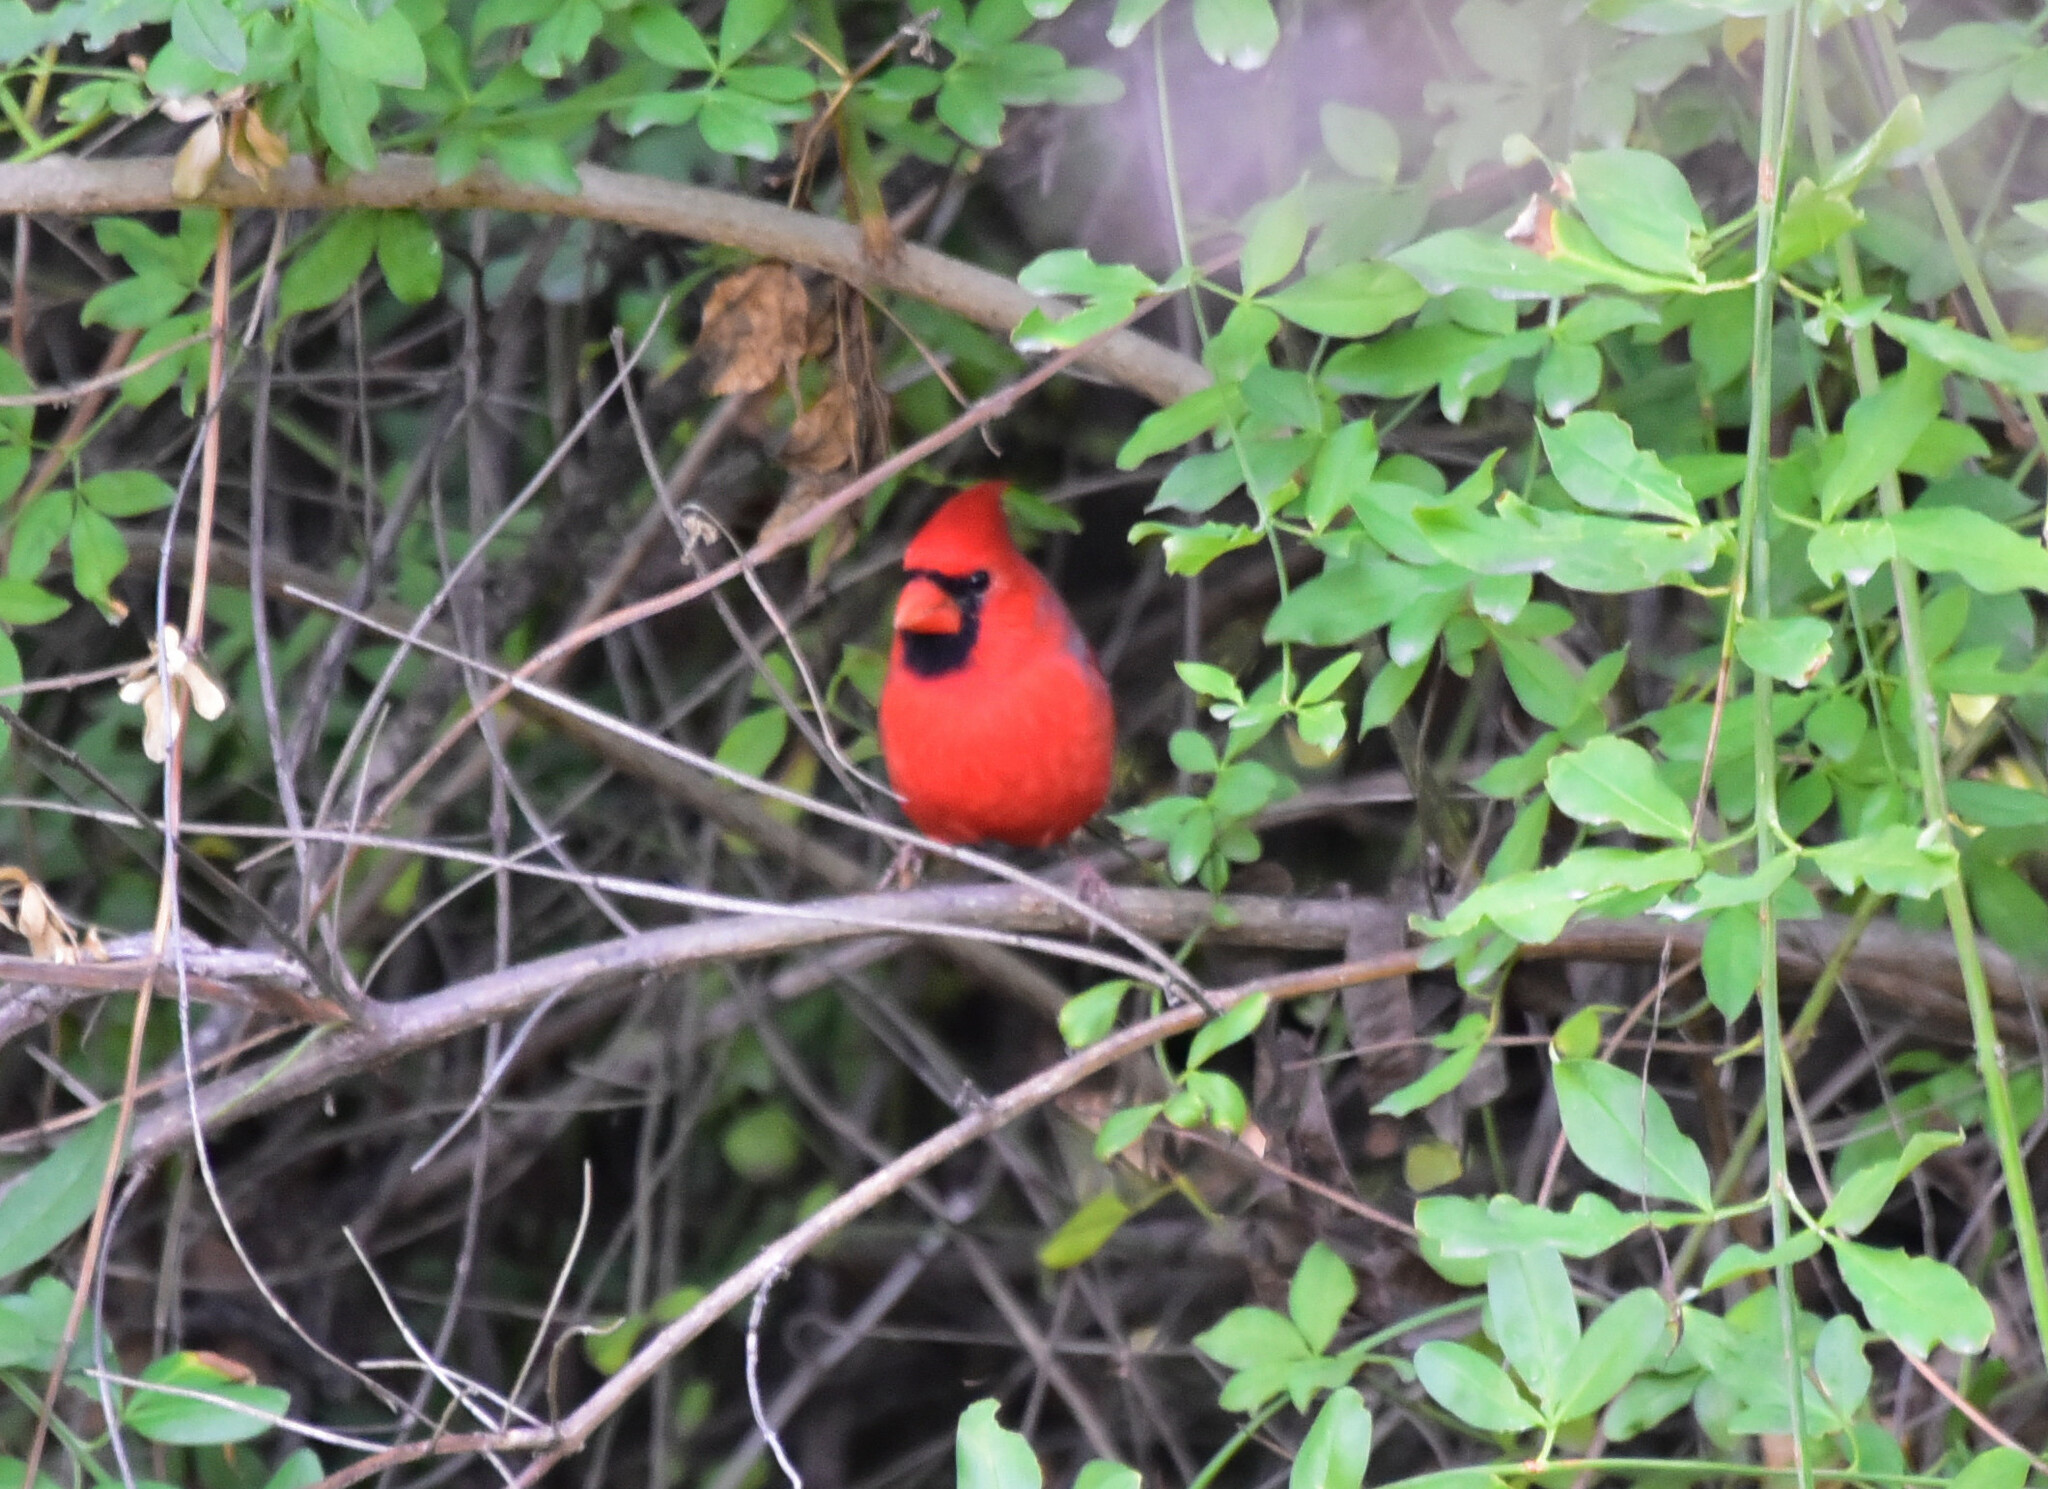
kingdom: Animalia
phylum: Chordata
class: Aves
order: Passeriformes
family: Cardinalidae
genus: Cardinalis
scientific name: Cardinalis cardinalis
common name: Northern cardinal
